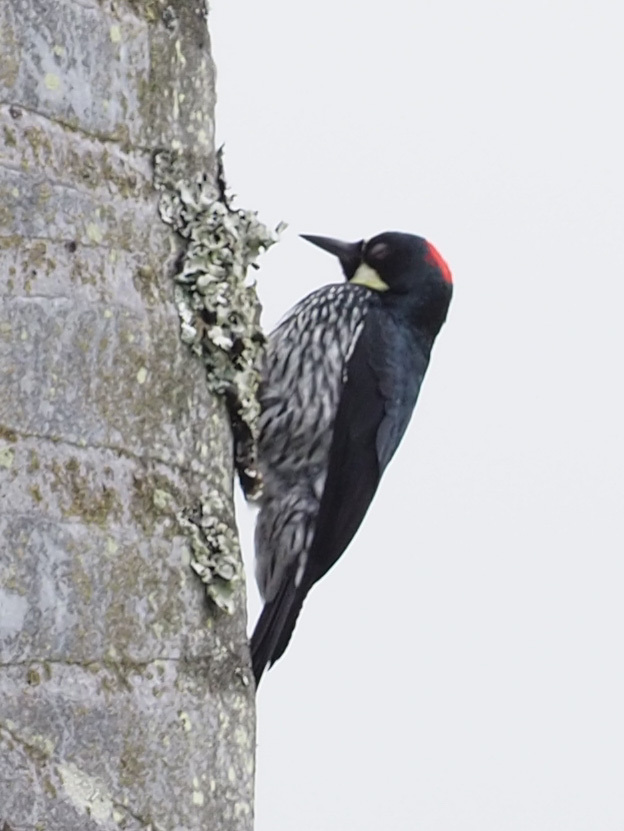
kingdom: Animalia
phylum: Chordata
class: Aves
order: Piciformes
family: Picidae
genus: Melanerpes
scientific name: Melanerpes formicivorus
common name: Acorn woodpecker
